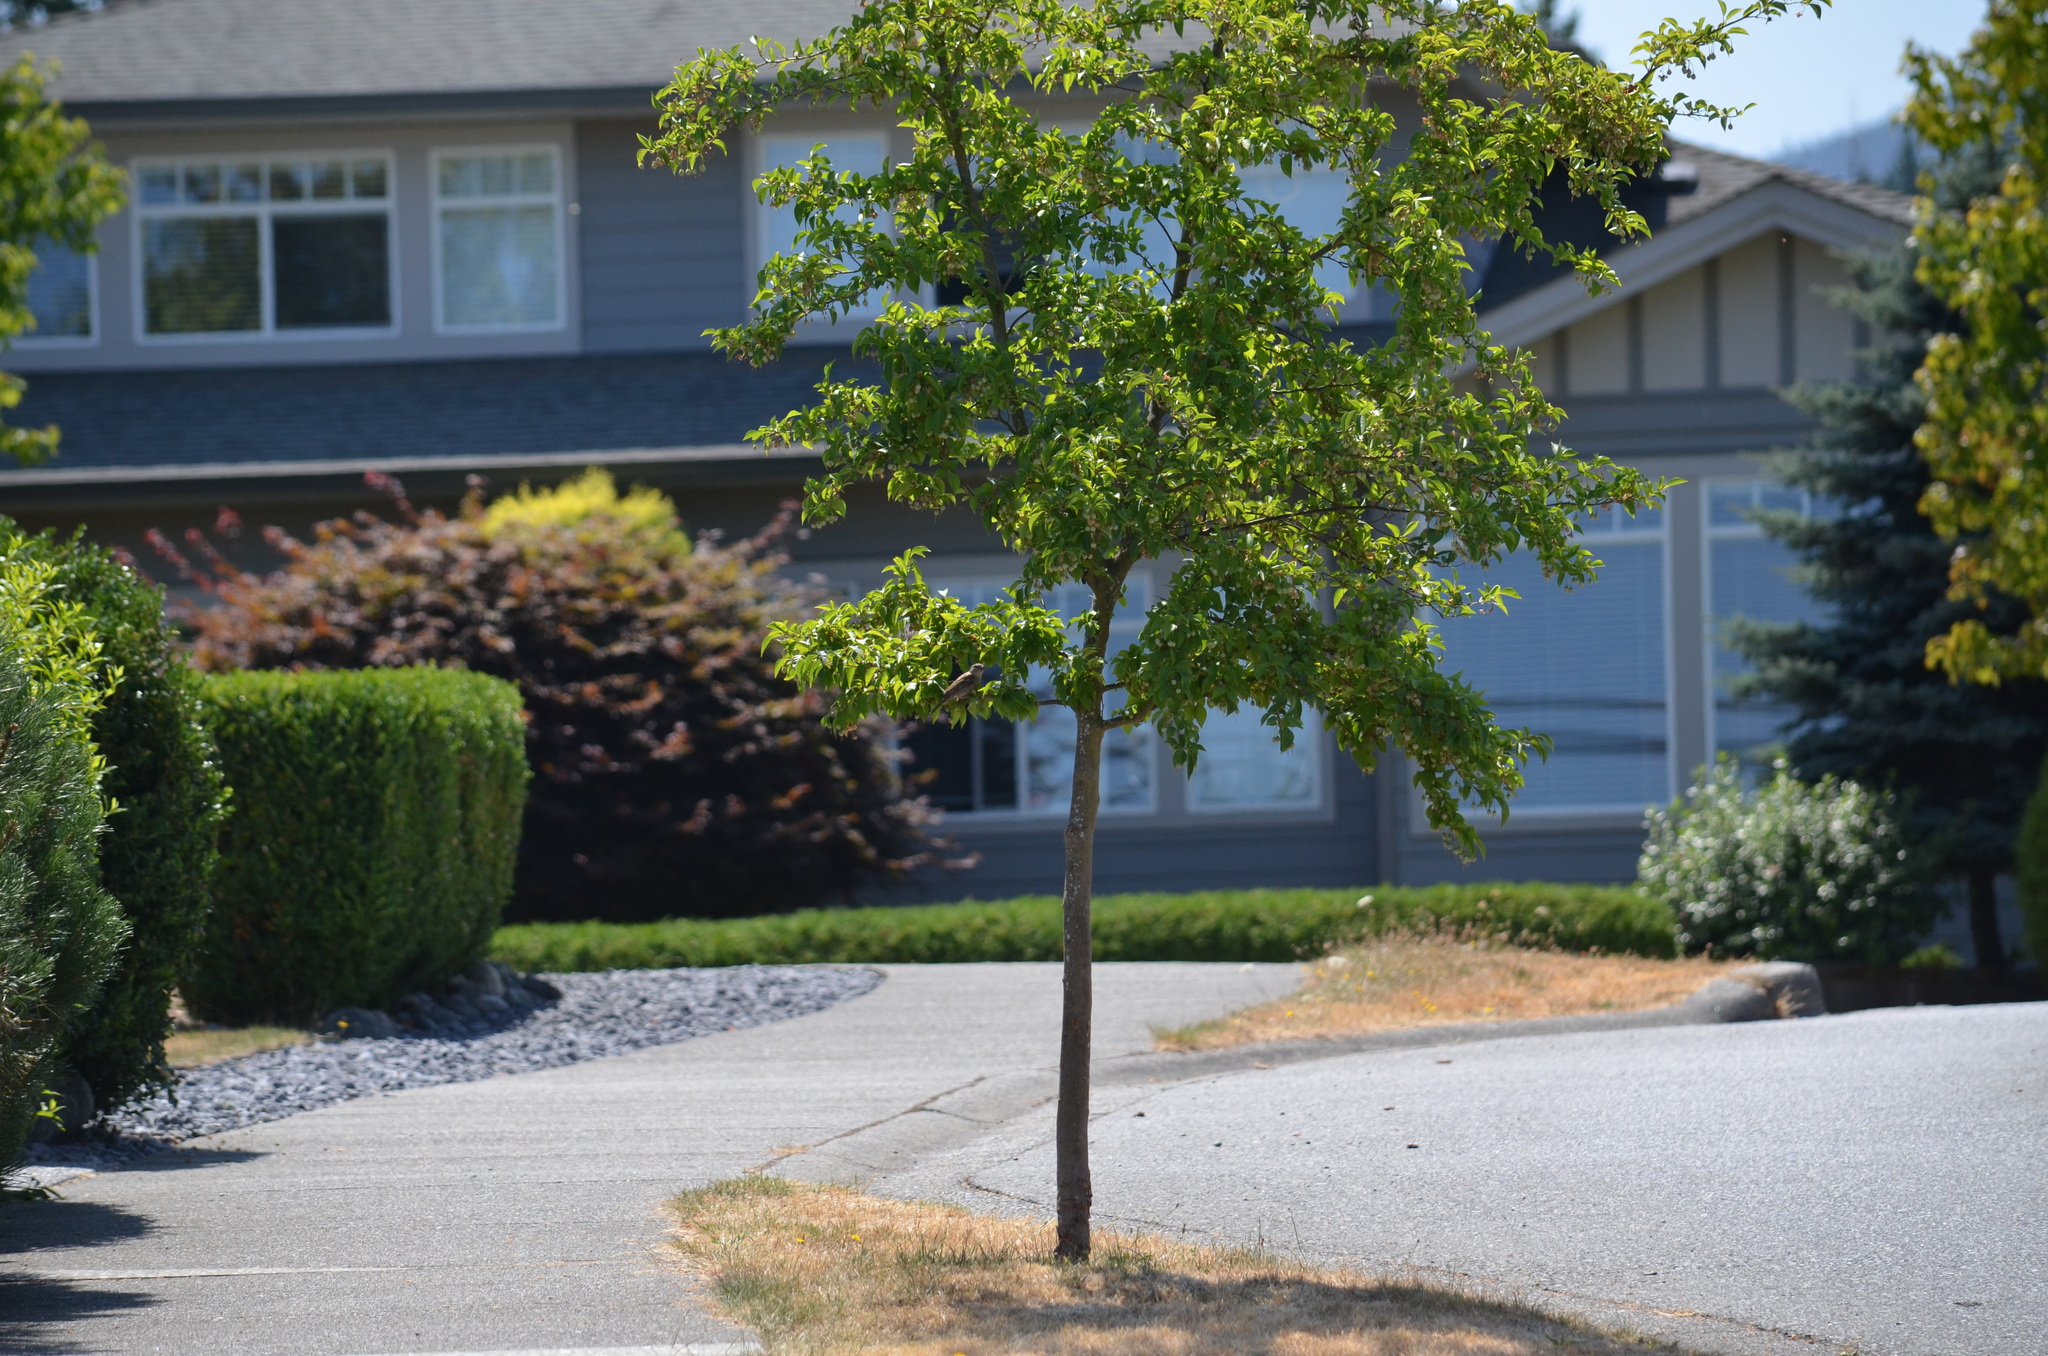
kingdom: Animalia
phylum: Chordata
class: Aves
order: Passeriformes
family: Passeridae
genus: Passer
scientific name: Passer domesticus
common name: House sparrow
